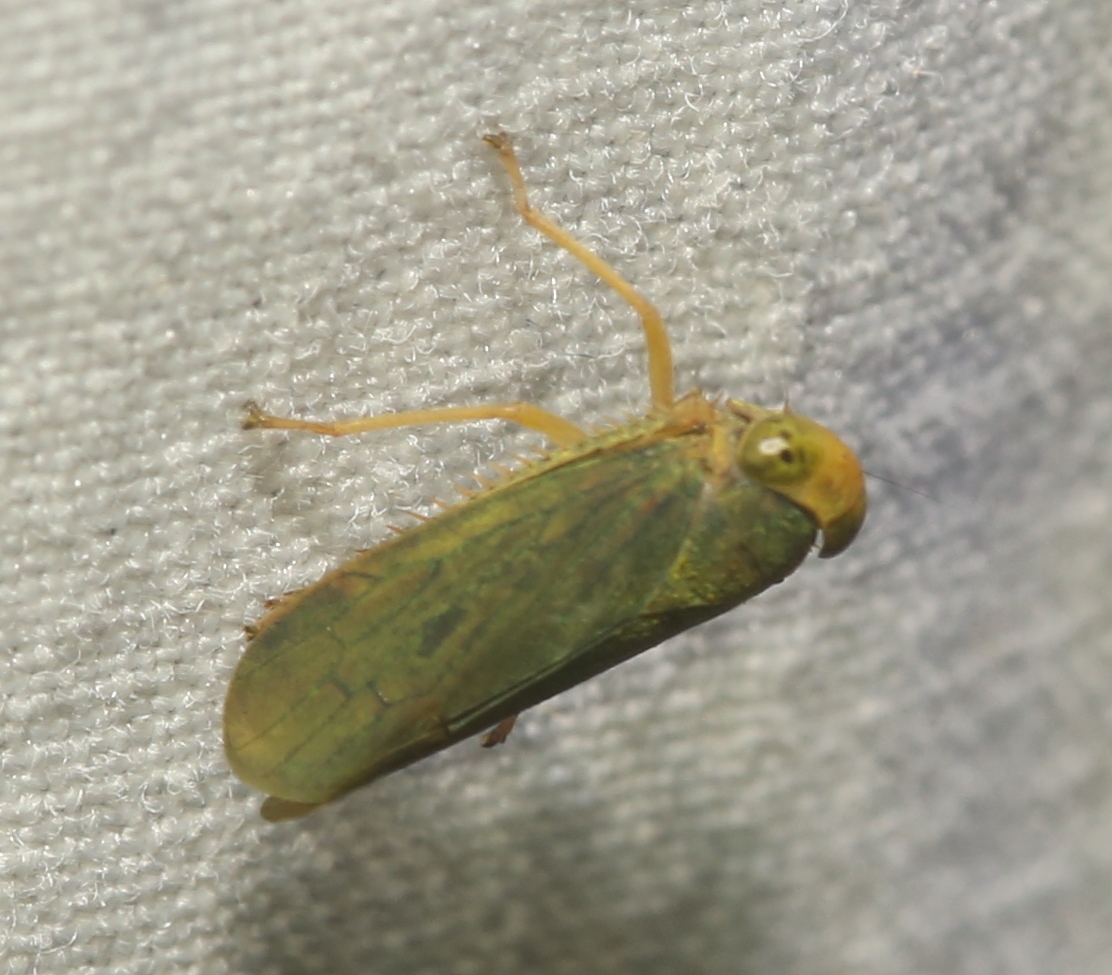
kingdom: Animalia
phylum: Arthropoda
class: Insecta
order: Hemiptera
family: Cicadellidae
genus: Jikradia
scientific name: Jikradia olitoria
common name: Coppery leafhopper
